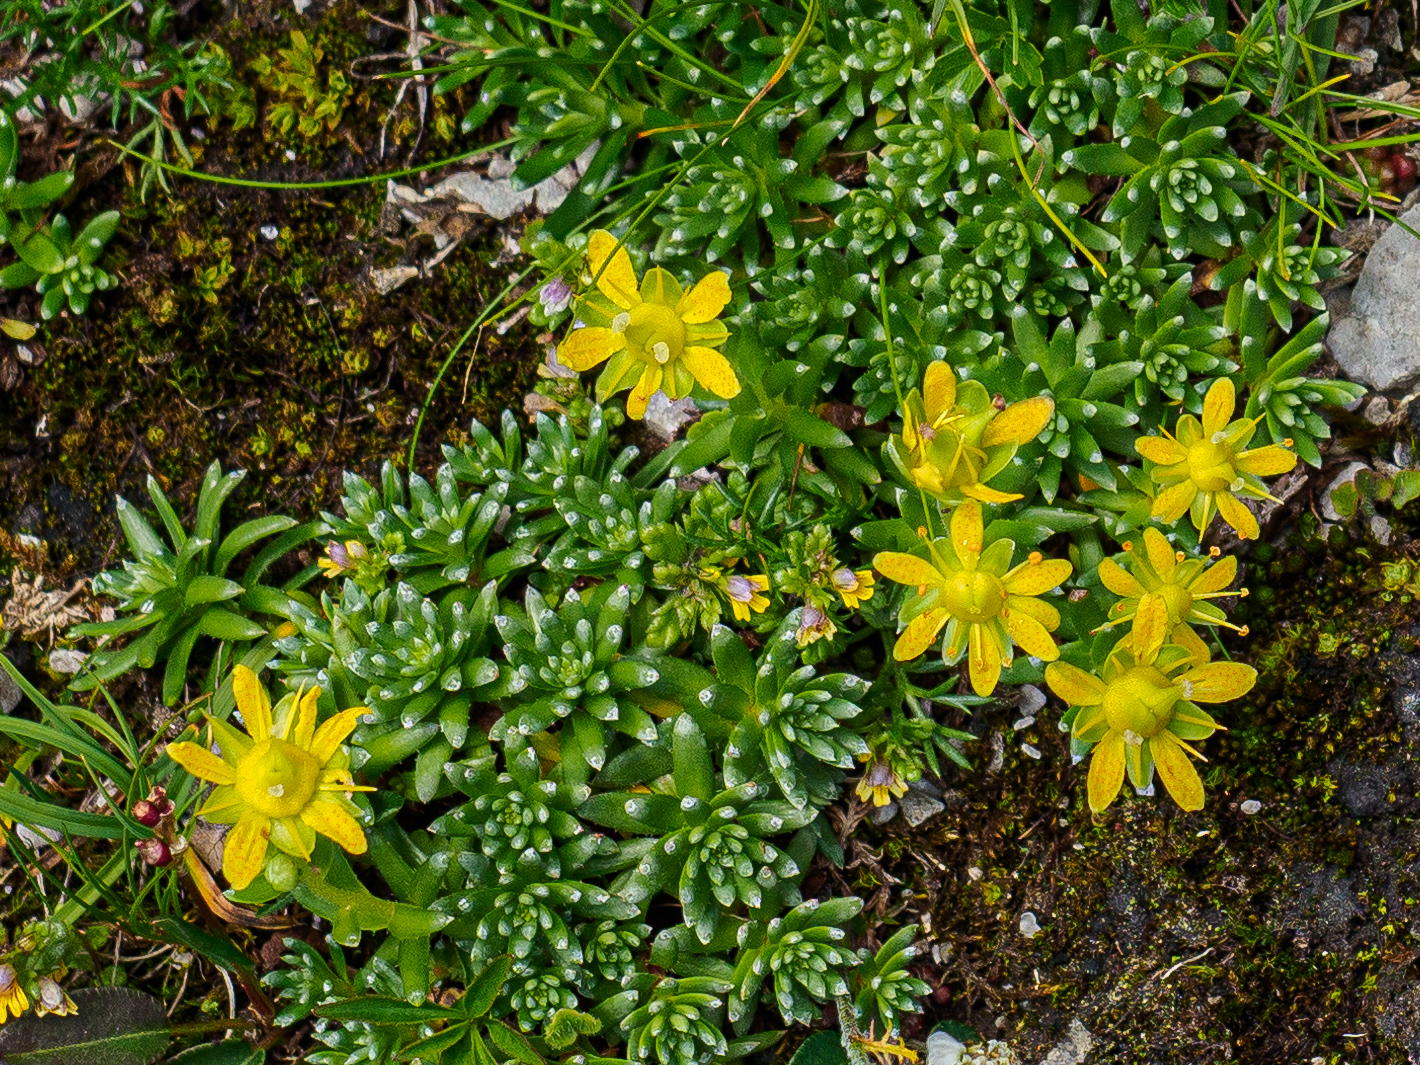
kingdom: Plantae
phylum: Tracheophyta
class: Magnoliopsida
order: Saxifragales
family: Saxifragaceae
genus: Saxifraga
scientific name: Saxifraga aizoides
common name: Yellow mountain saxifrage
